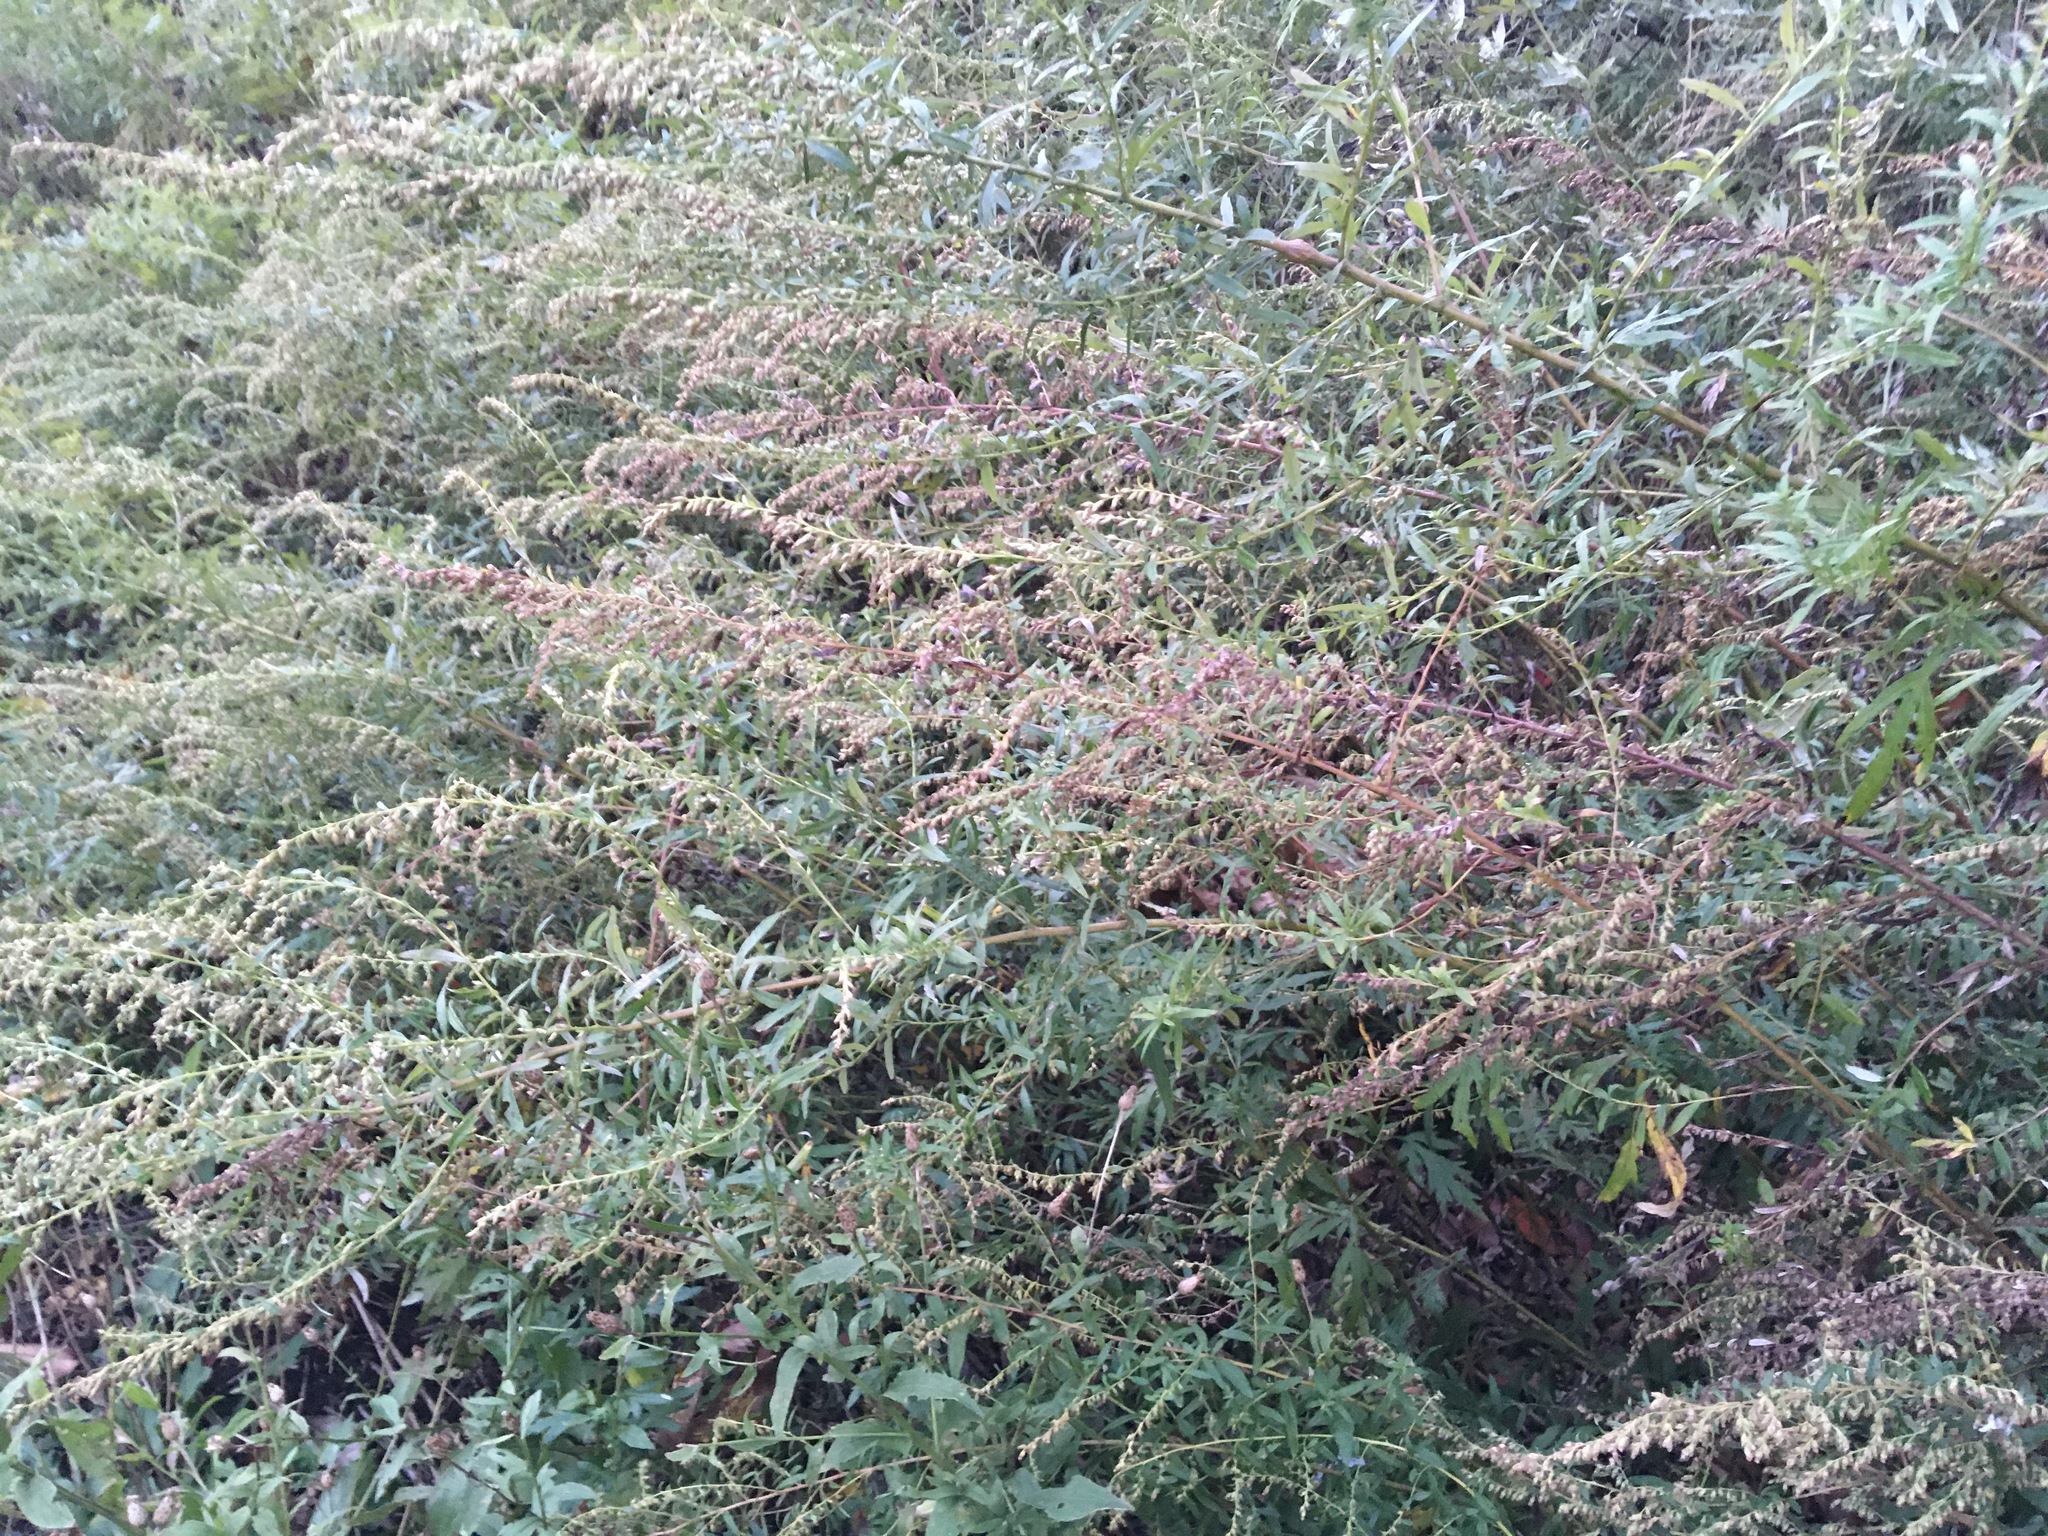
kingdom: Plantae
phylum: Tracheophyta
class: Magnoliopsida
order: Asterales
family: Asteraceae
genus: Artemisia
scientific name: Artemisia vulgaris
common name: Mugwort
